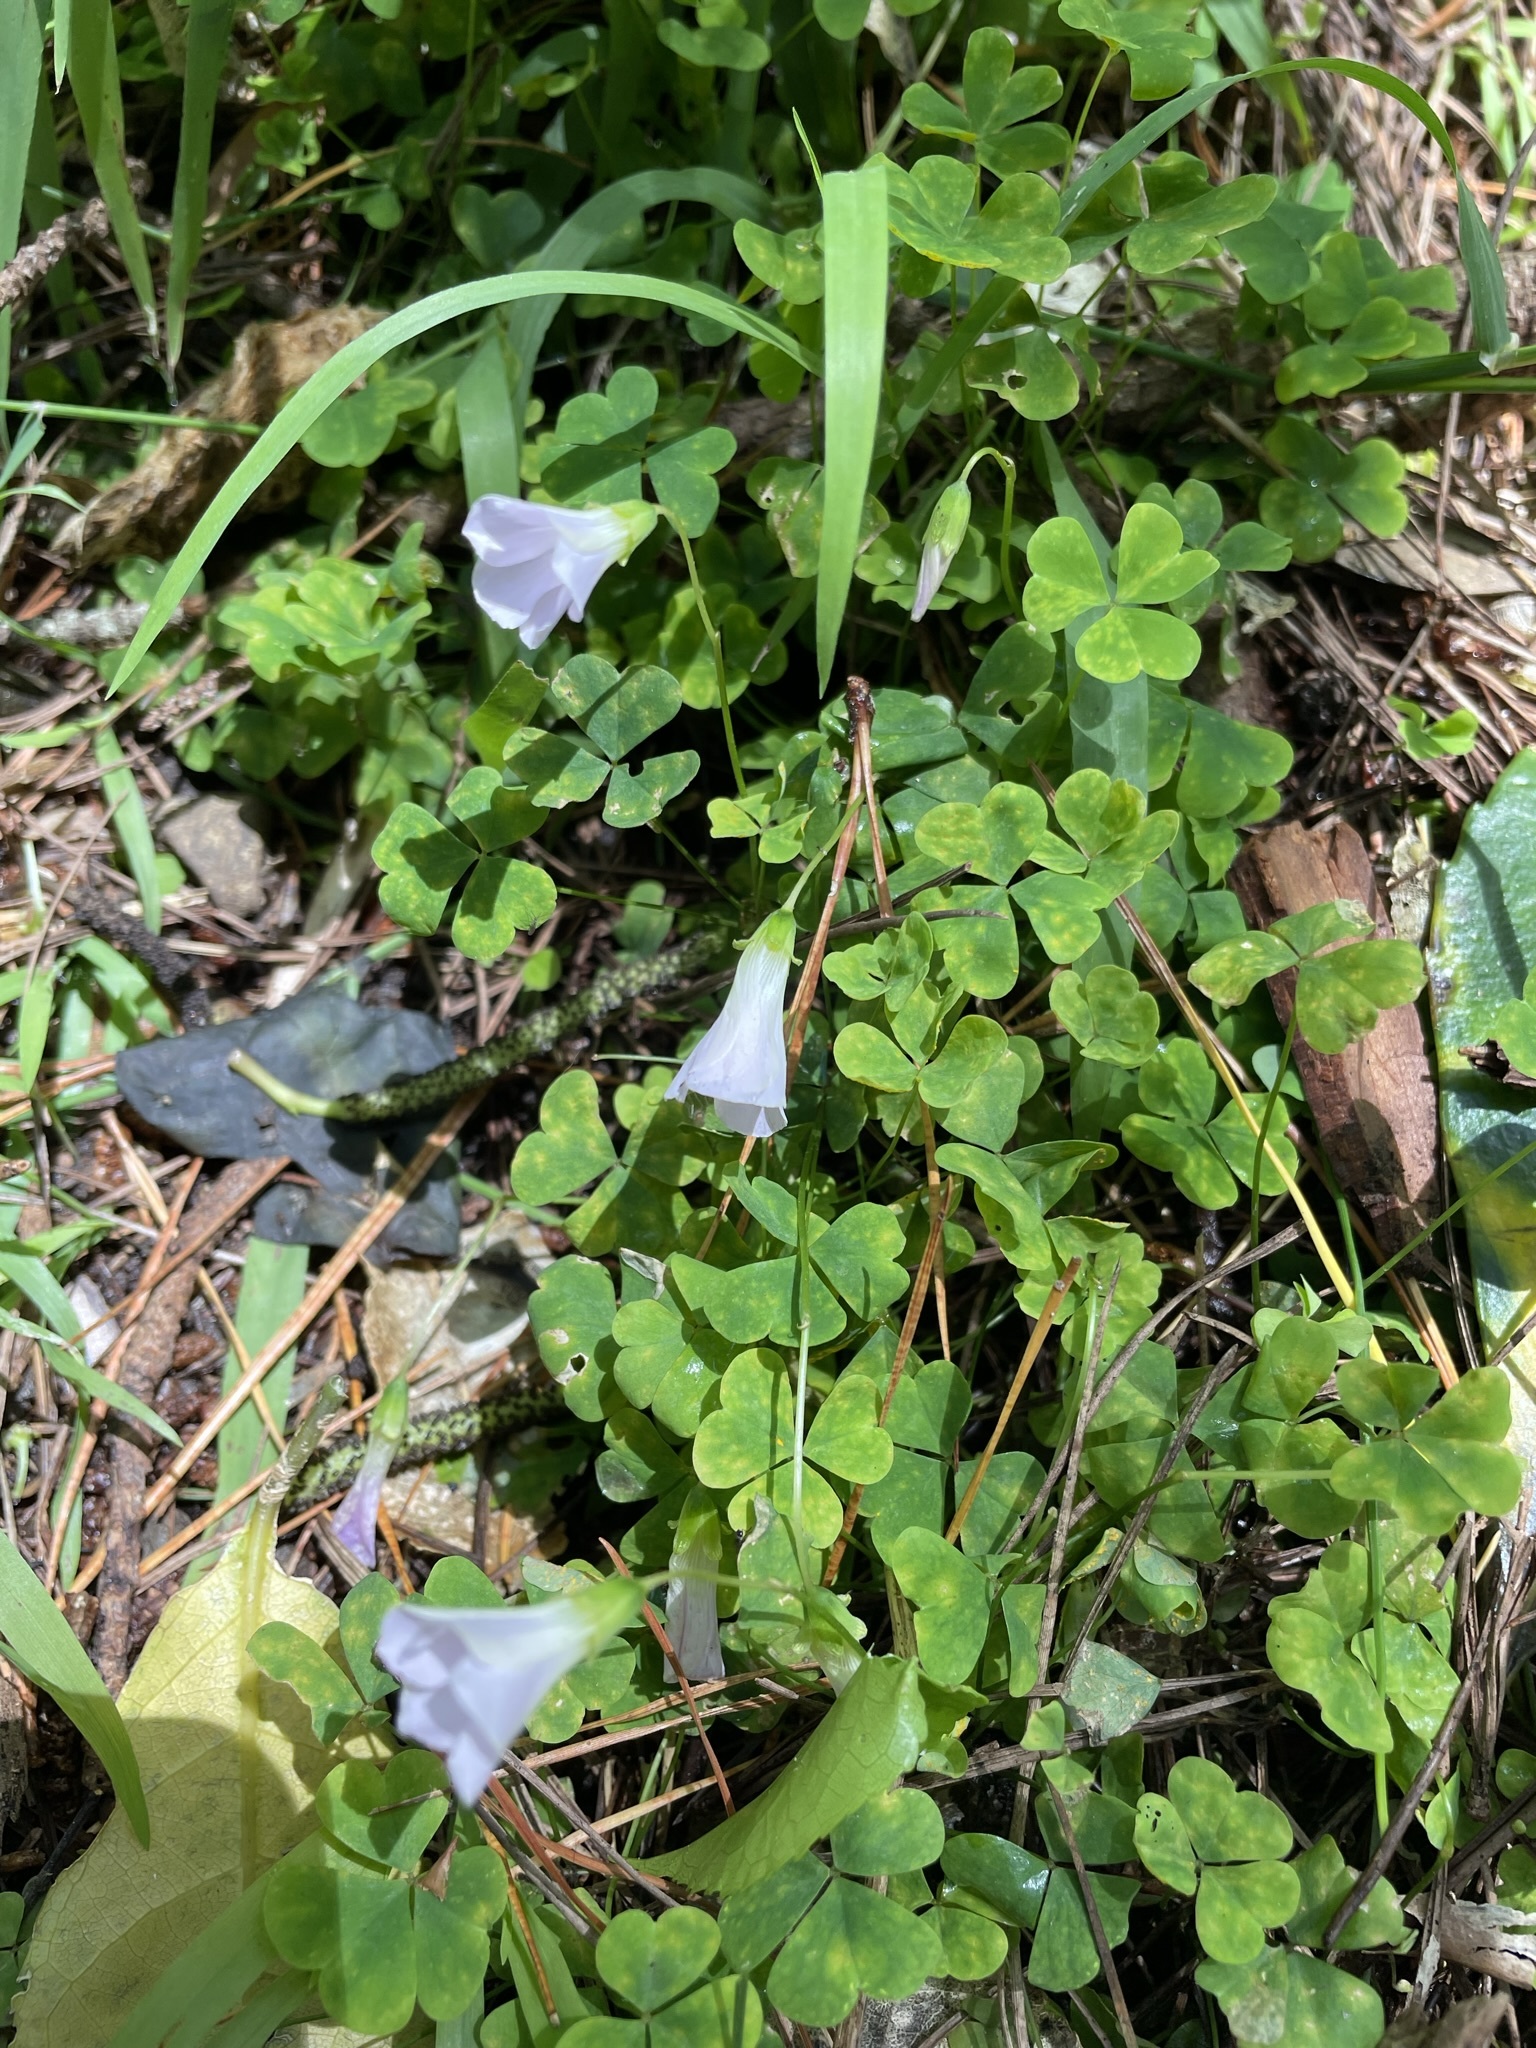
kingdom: Plantae
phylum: Tracheophyta
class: Magnoliopsida
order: Oxalidales
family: Oxalidaceae
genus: Oxalis
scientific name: Oxalis incarnata
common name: Pale pink-sorrel
